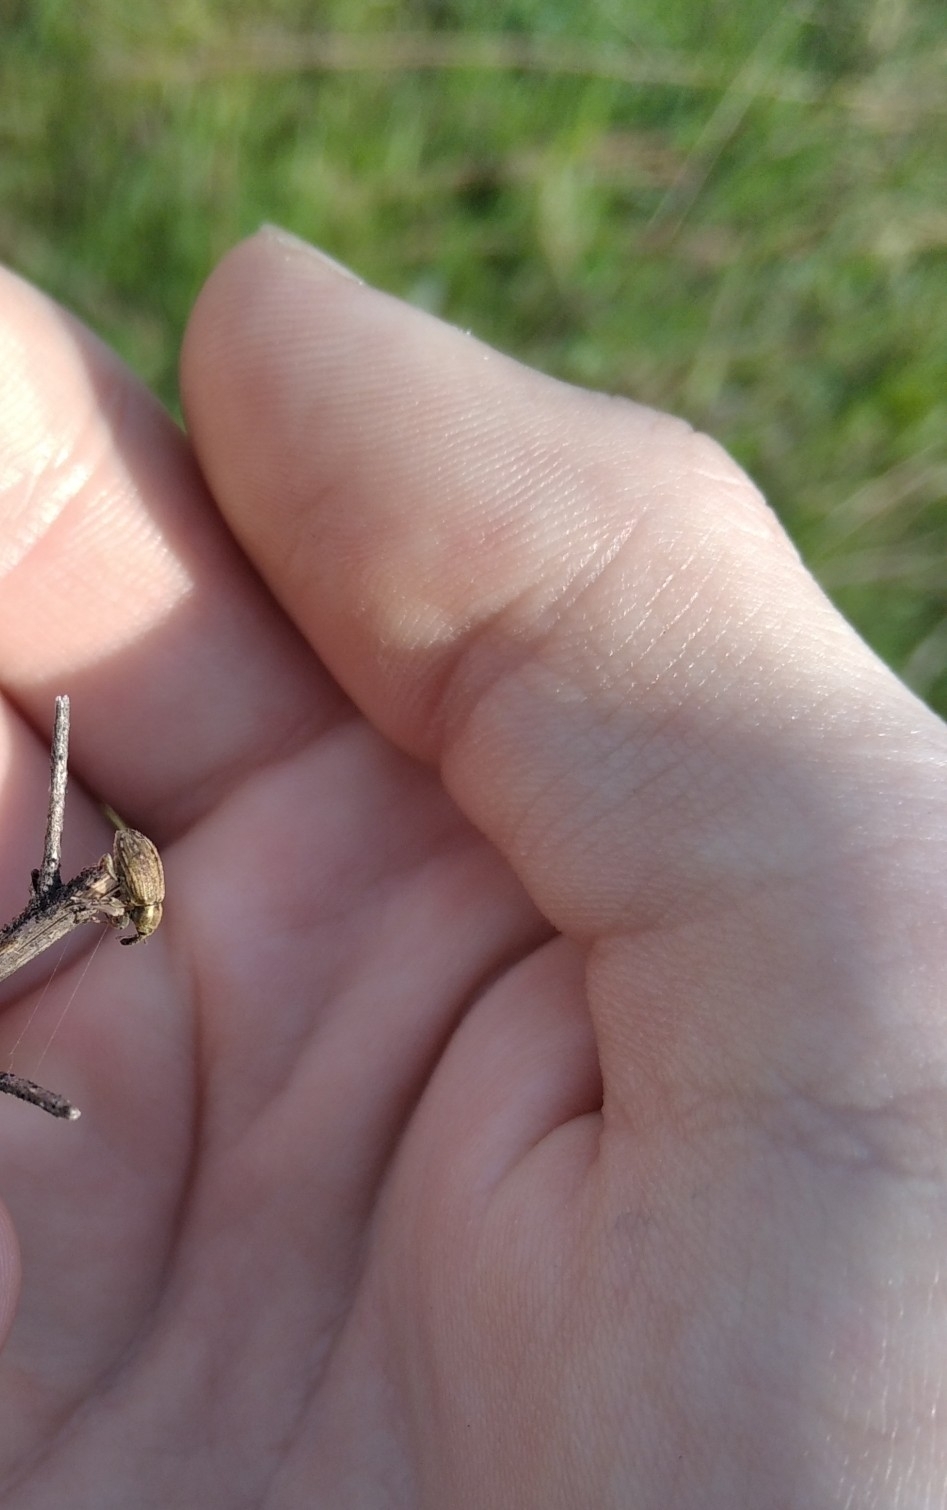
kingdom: Animalia
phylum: Arthropoda
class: Insecta
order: Coleoptera
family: Curculionidae
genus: Hypera
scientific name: Hypera
